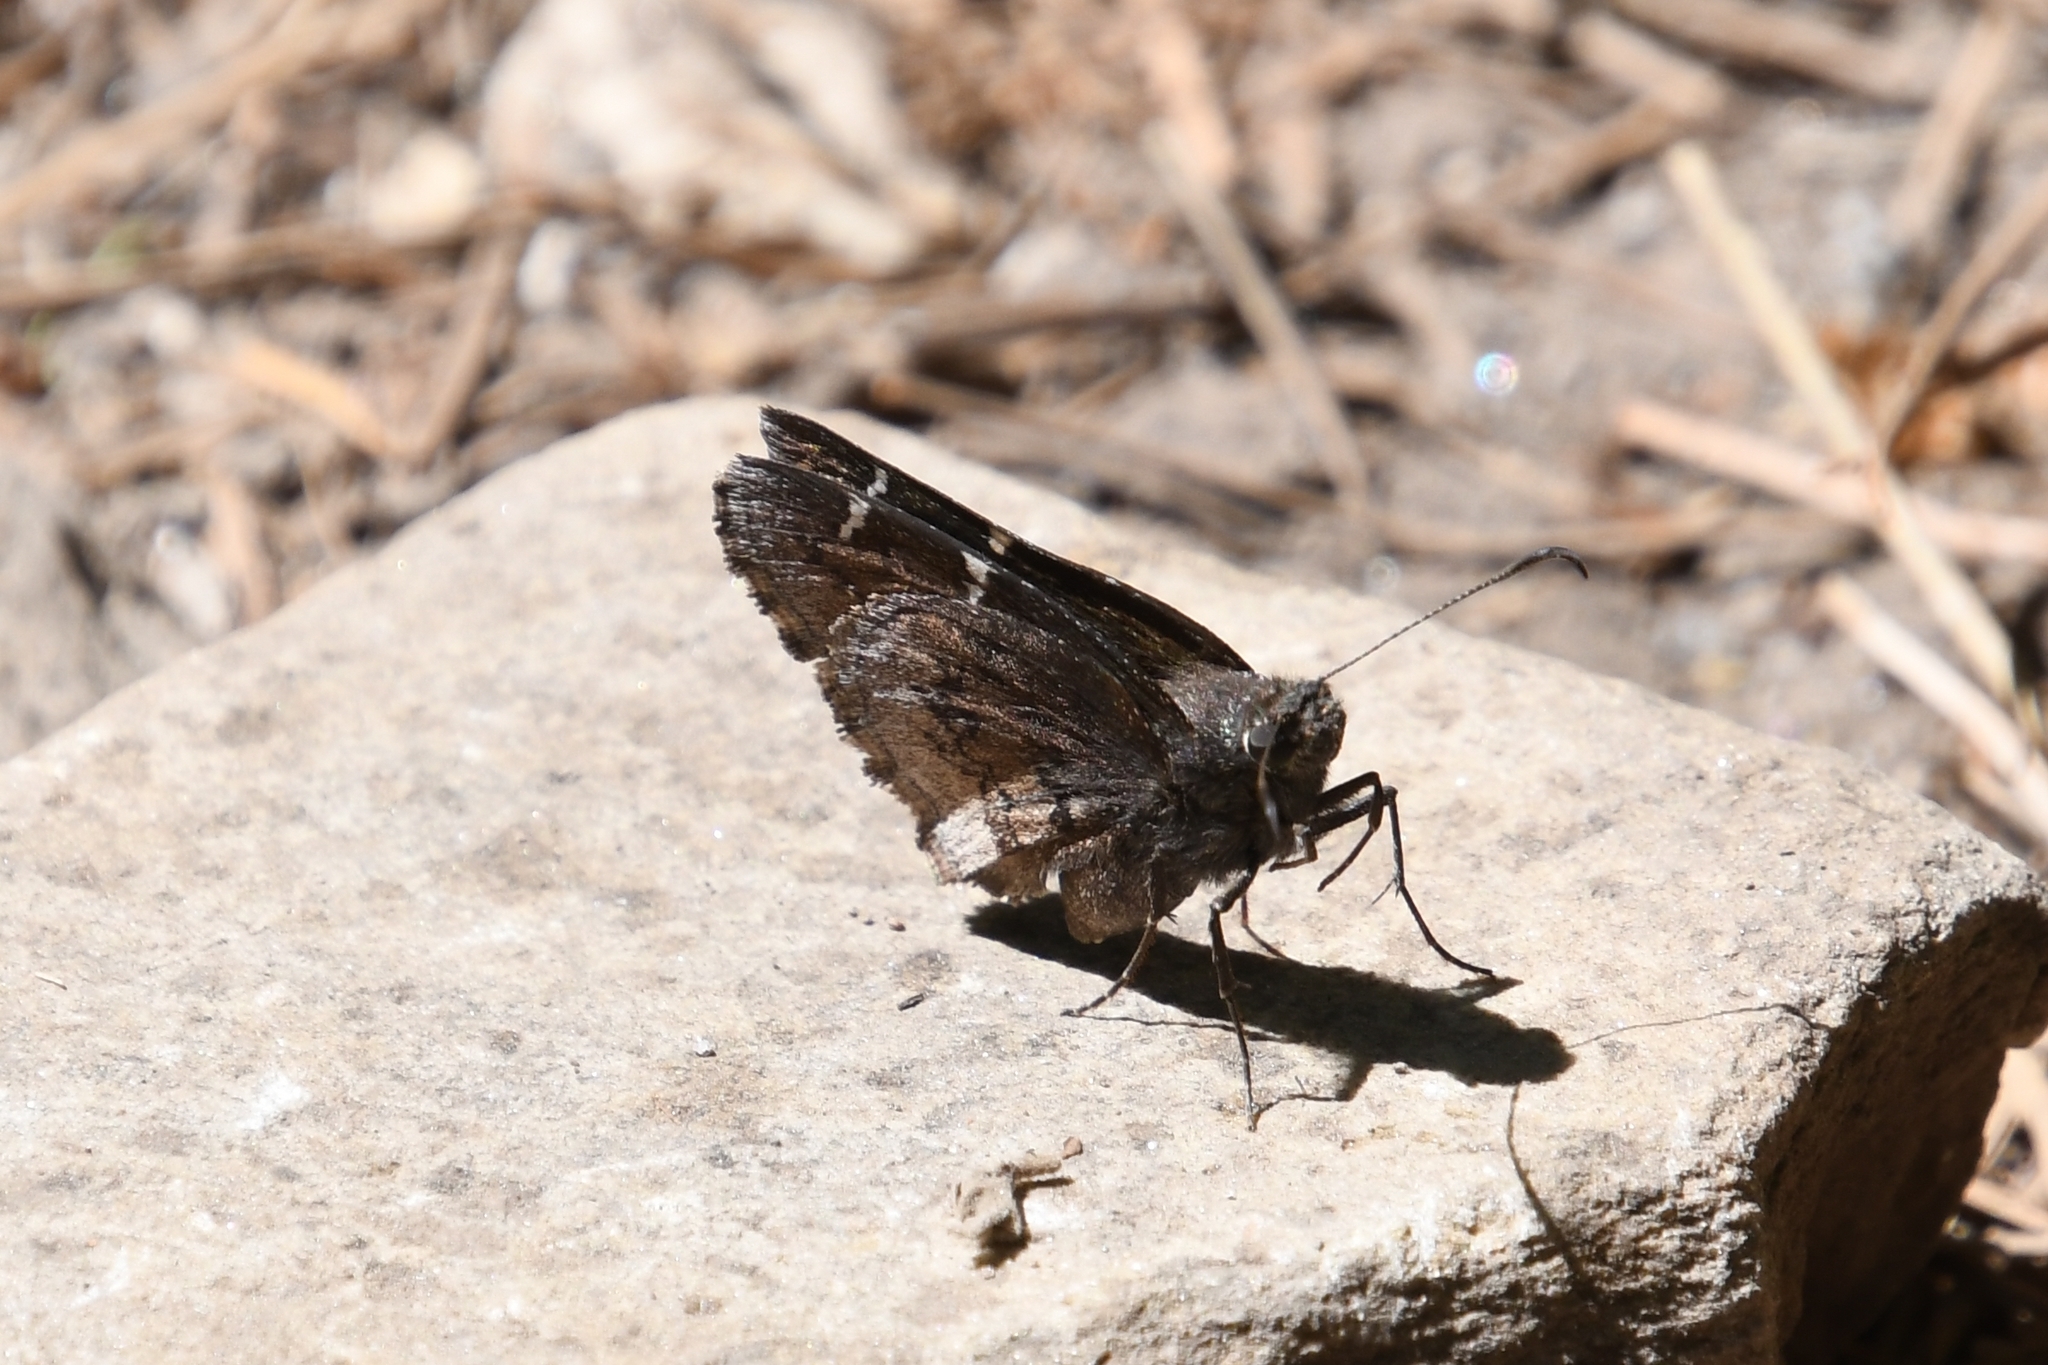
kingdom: Animalia
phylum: Arthropoda
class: Insecta
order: Lepidoptera
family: Hesperiidae
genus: Thorybes
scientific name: Thorybes pylades
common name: Northern cloudywing
